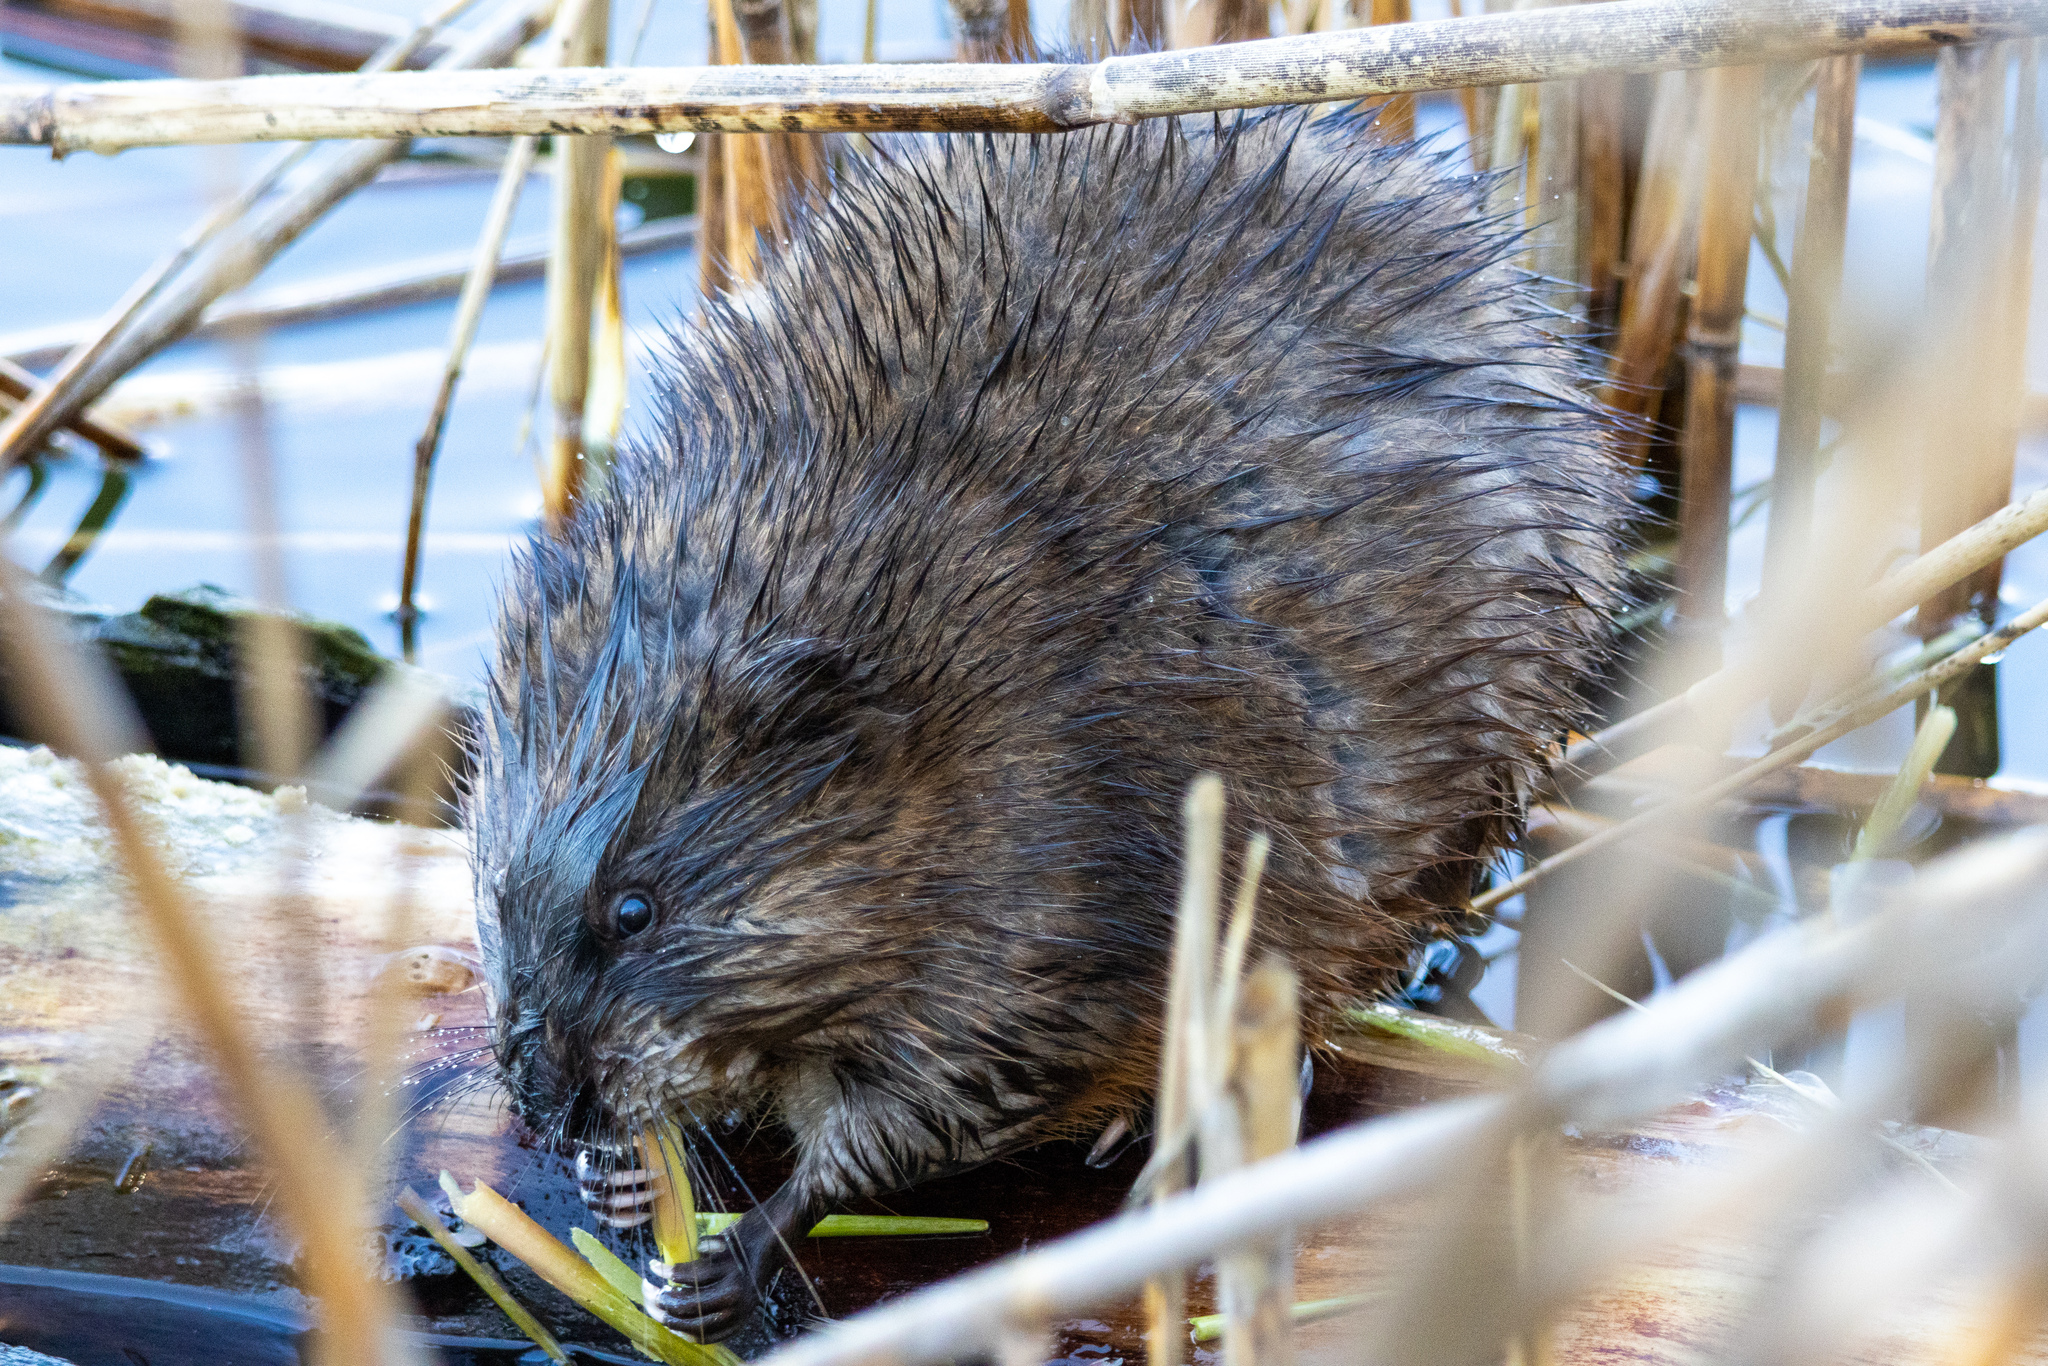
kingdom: Animalia
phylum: Chordata
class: Mammalia
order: Rodentia
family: Cricetidae
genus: Ondatra
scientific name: Ondatra zibethicus
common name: Muskrat
